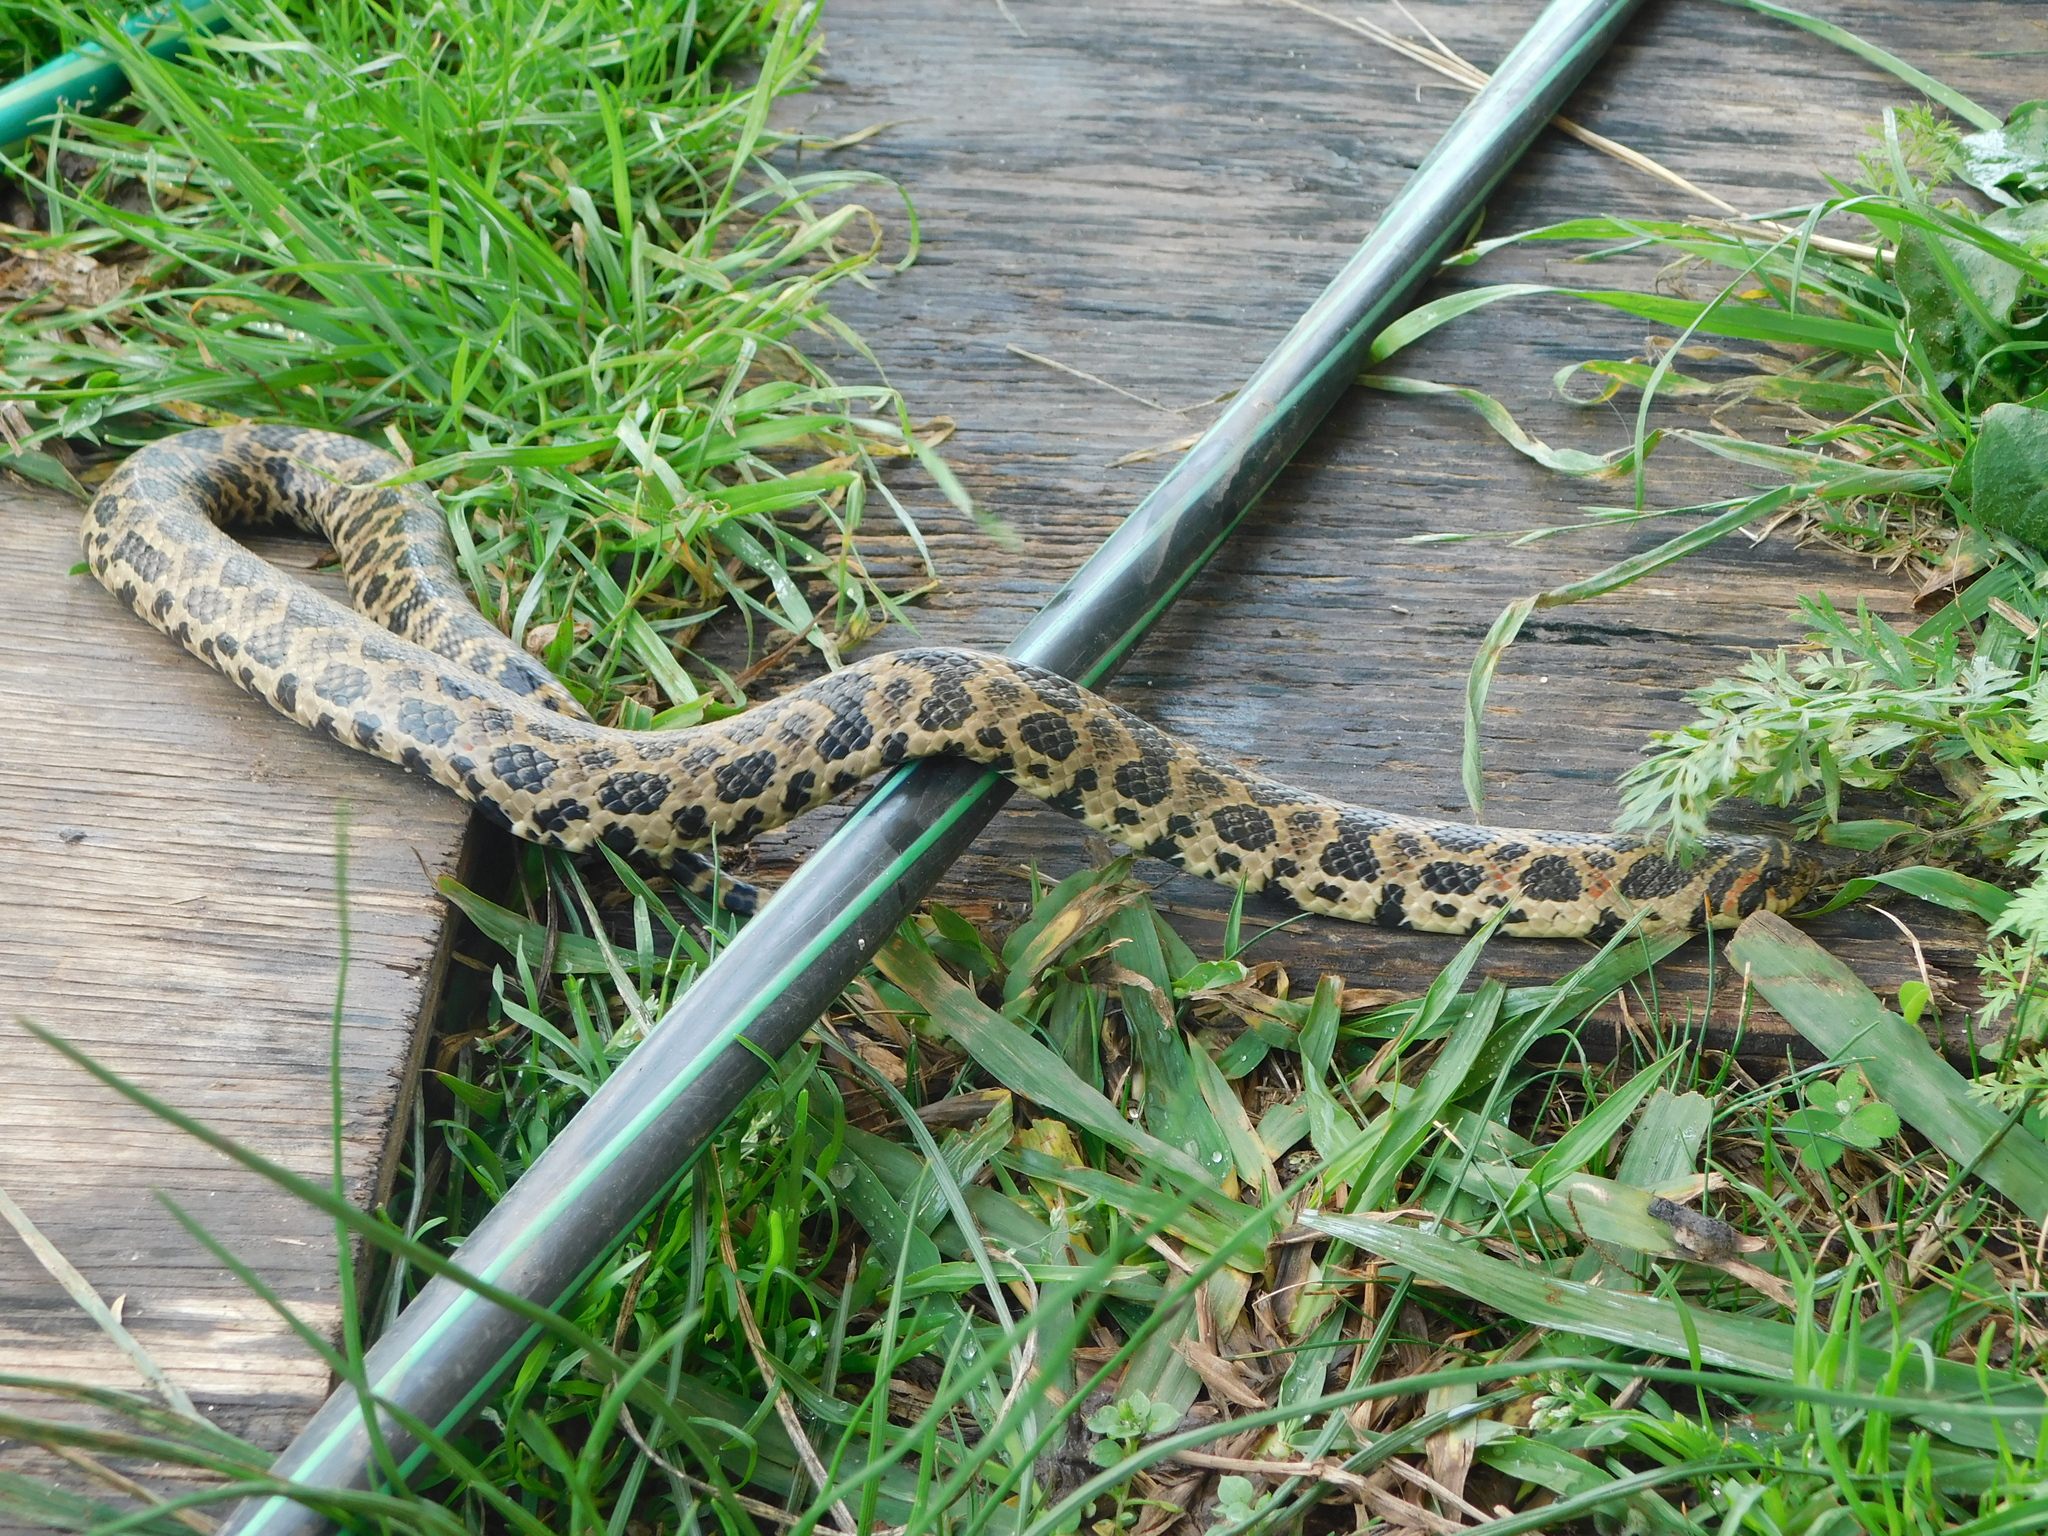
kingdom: Animalia
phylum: Chordata
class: Squamata
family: Colubridae
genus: Xenodon
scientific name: Xenodon dorbignyi
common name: South american hognose snake
